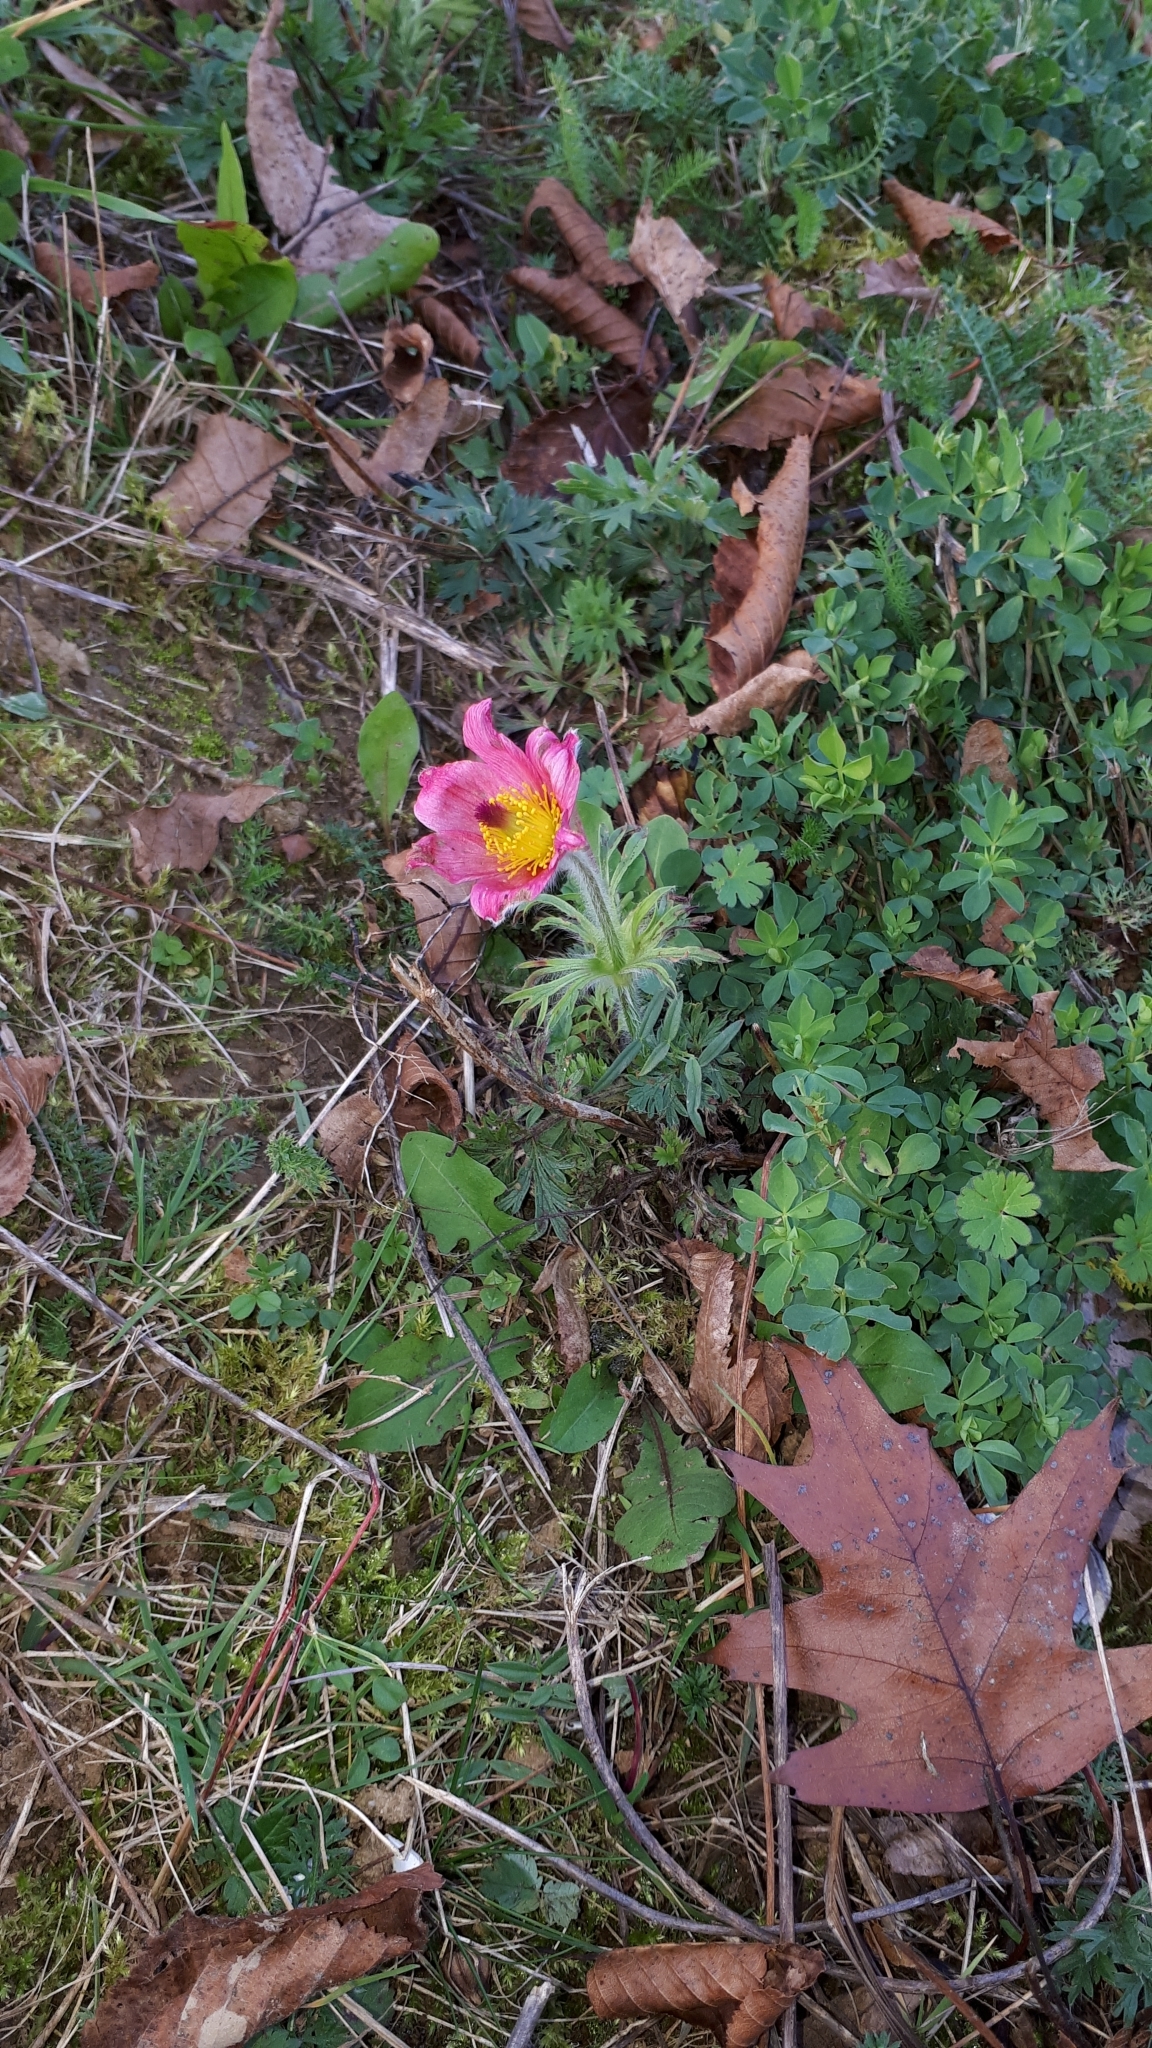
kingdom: Plantae
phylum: Tracheophyta
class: Magnoliopsida
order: Ranunculales
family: Ranunculaceae
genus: Pulsatilla
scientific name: Pulsatilla vulgaris
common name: Pasqueflower
